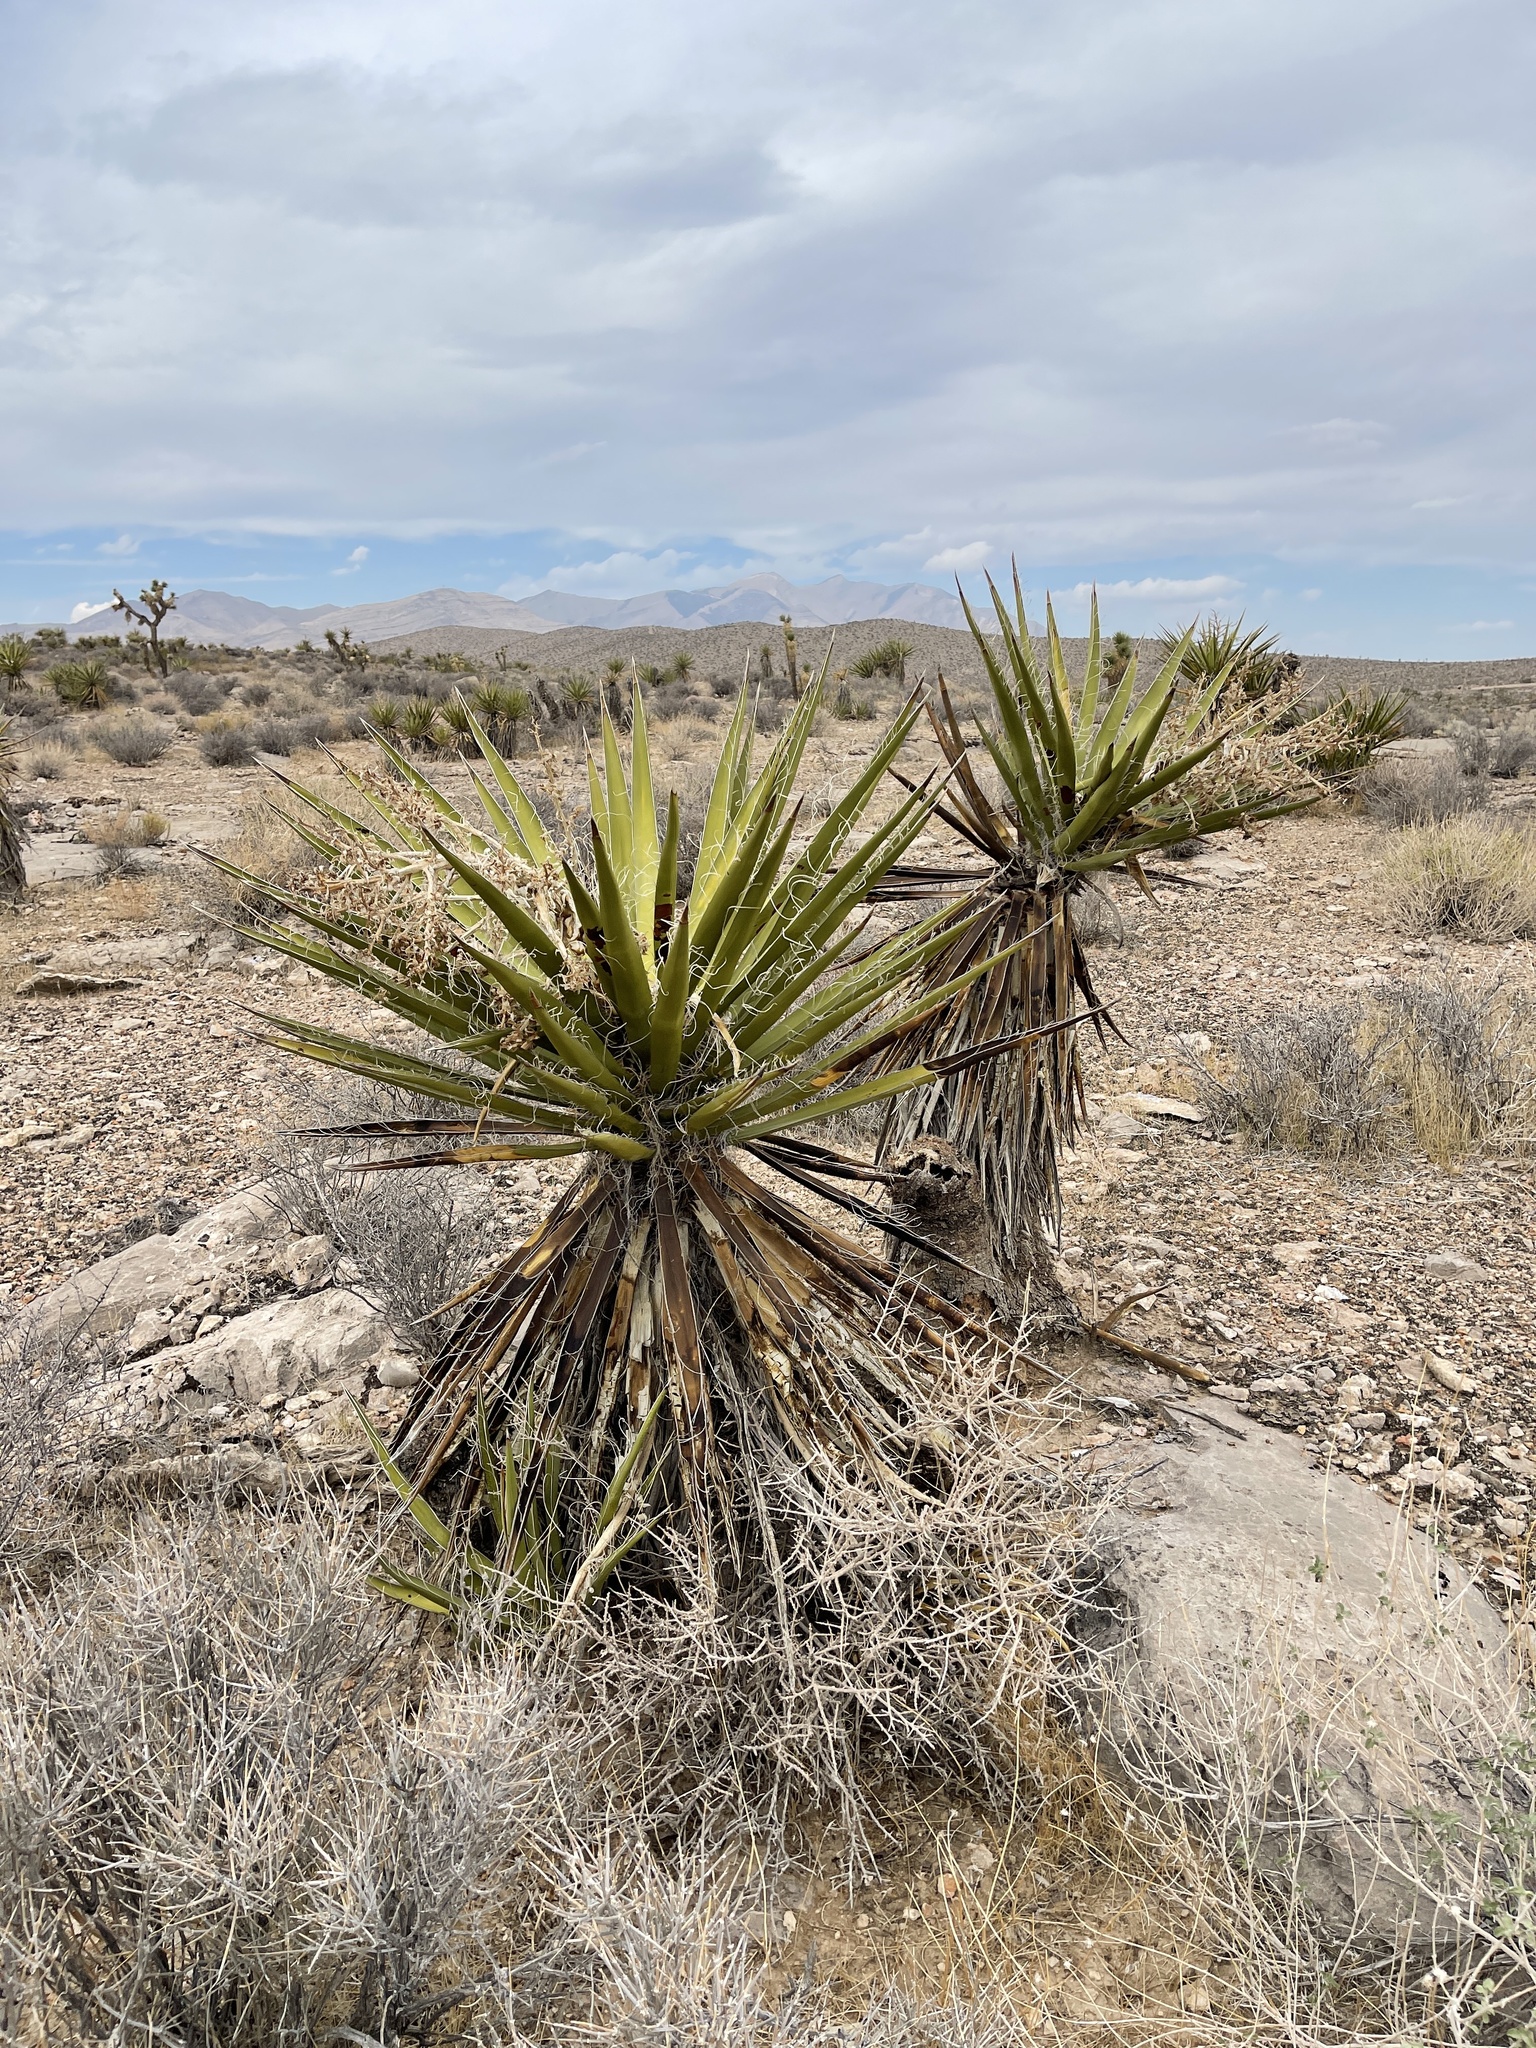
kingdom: Plantae
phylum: Tracheophyta
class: Liliopsida
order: Asparagales
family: Asparagaceae
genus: Yucca
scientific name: Yucca schidigera
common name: Mojave yucca
